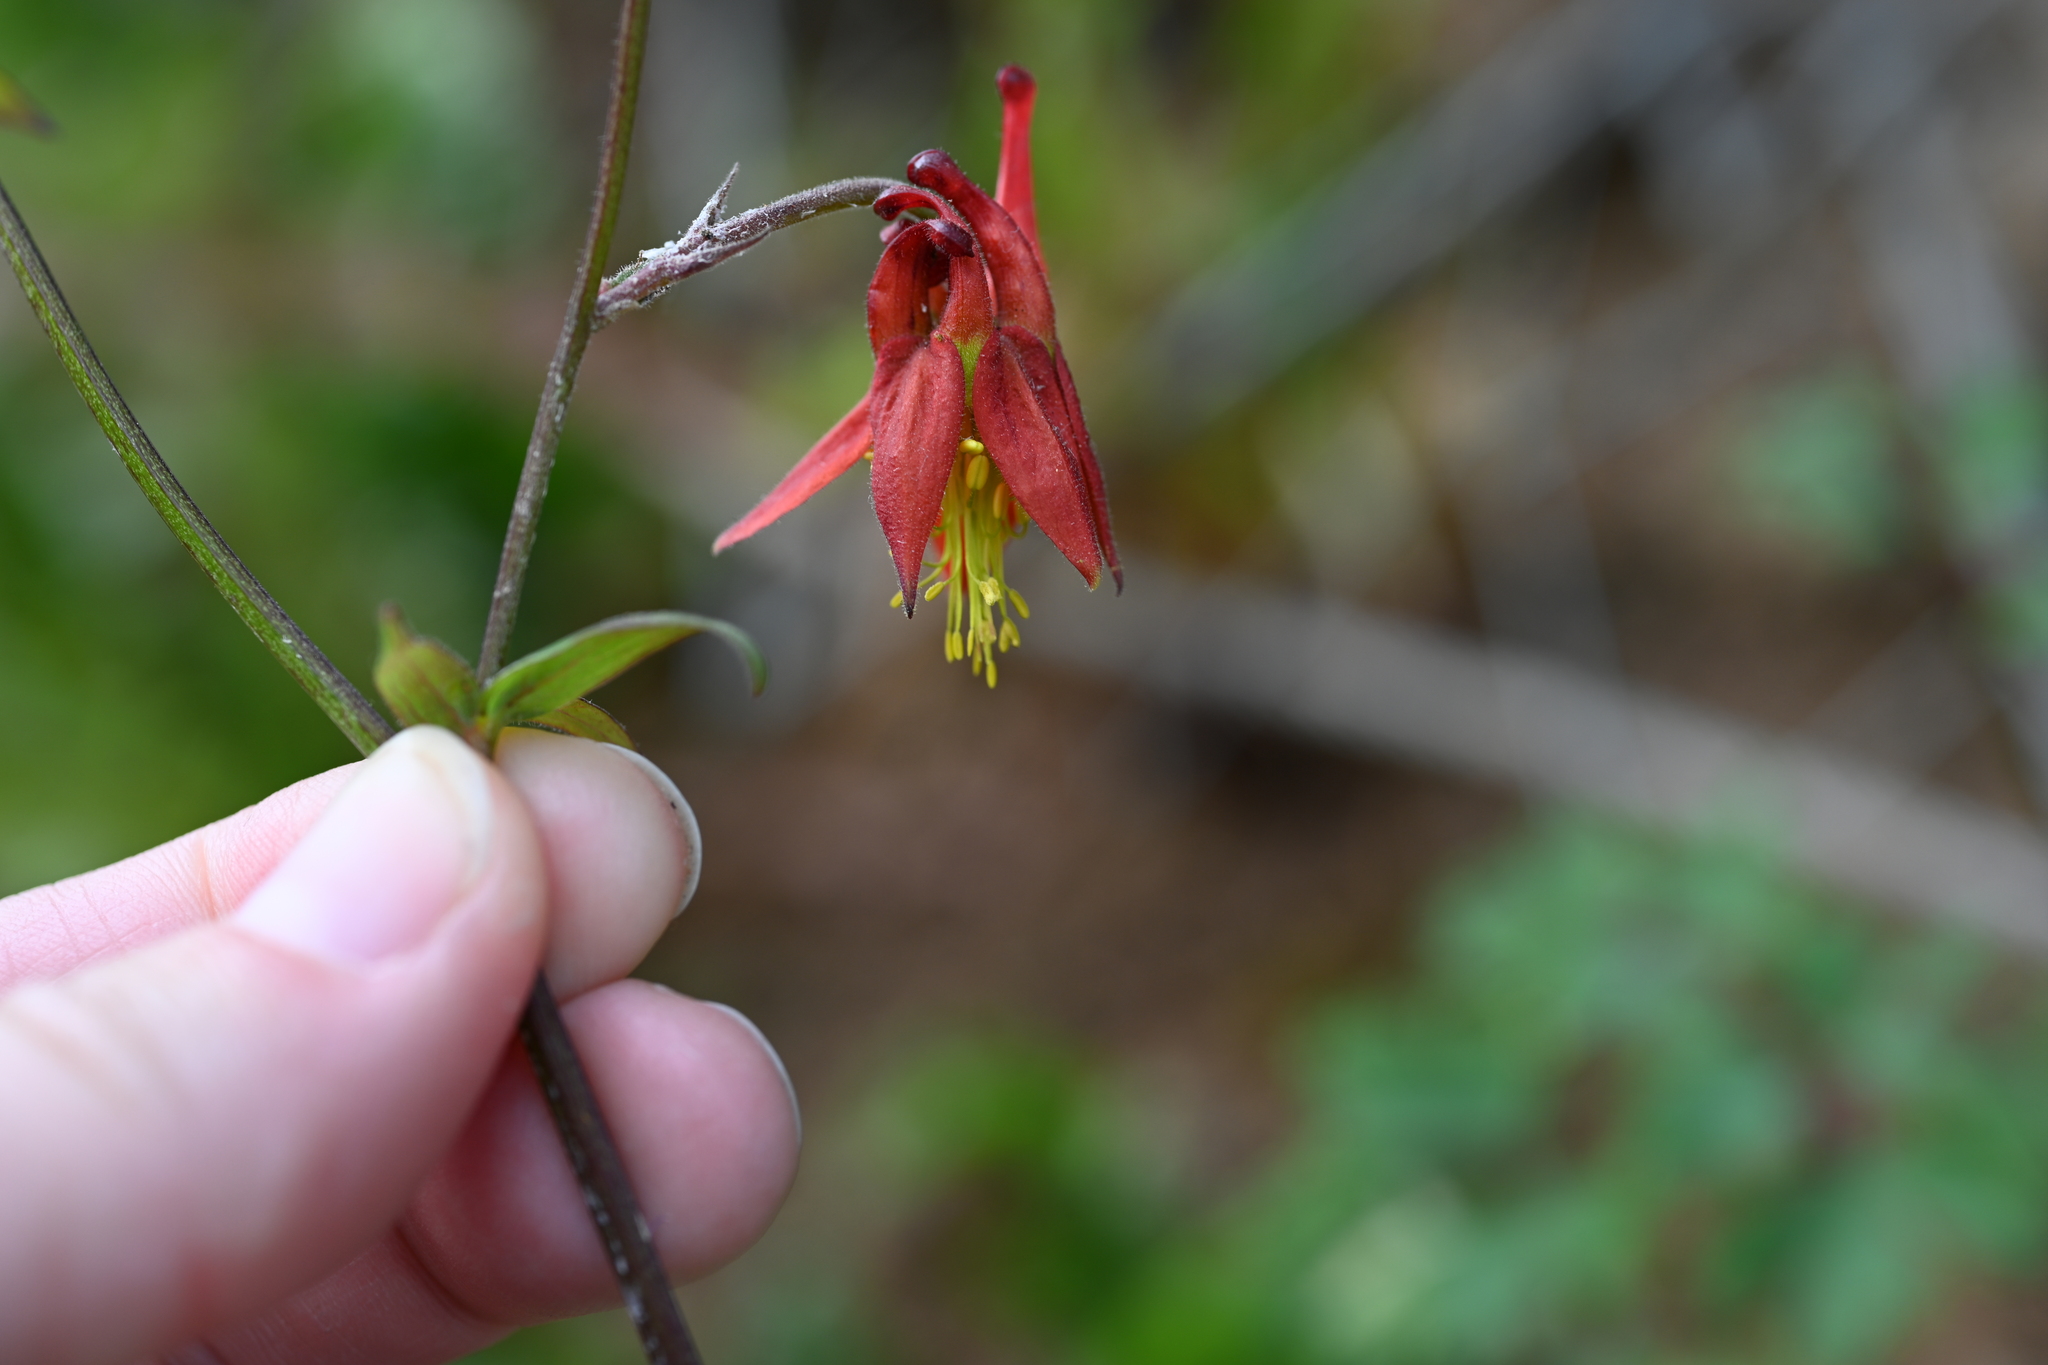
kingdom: Plantae
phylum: Tracheophyta
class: Magnoliopsida
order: Ranunculales
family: Ranunculaceae
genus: Aquilegia
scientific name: Aquilegia formosa
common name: Sitka columbine
